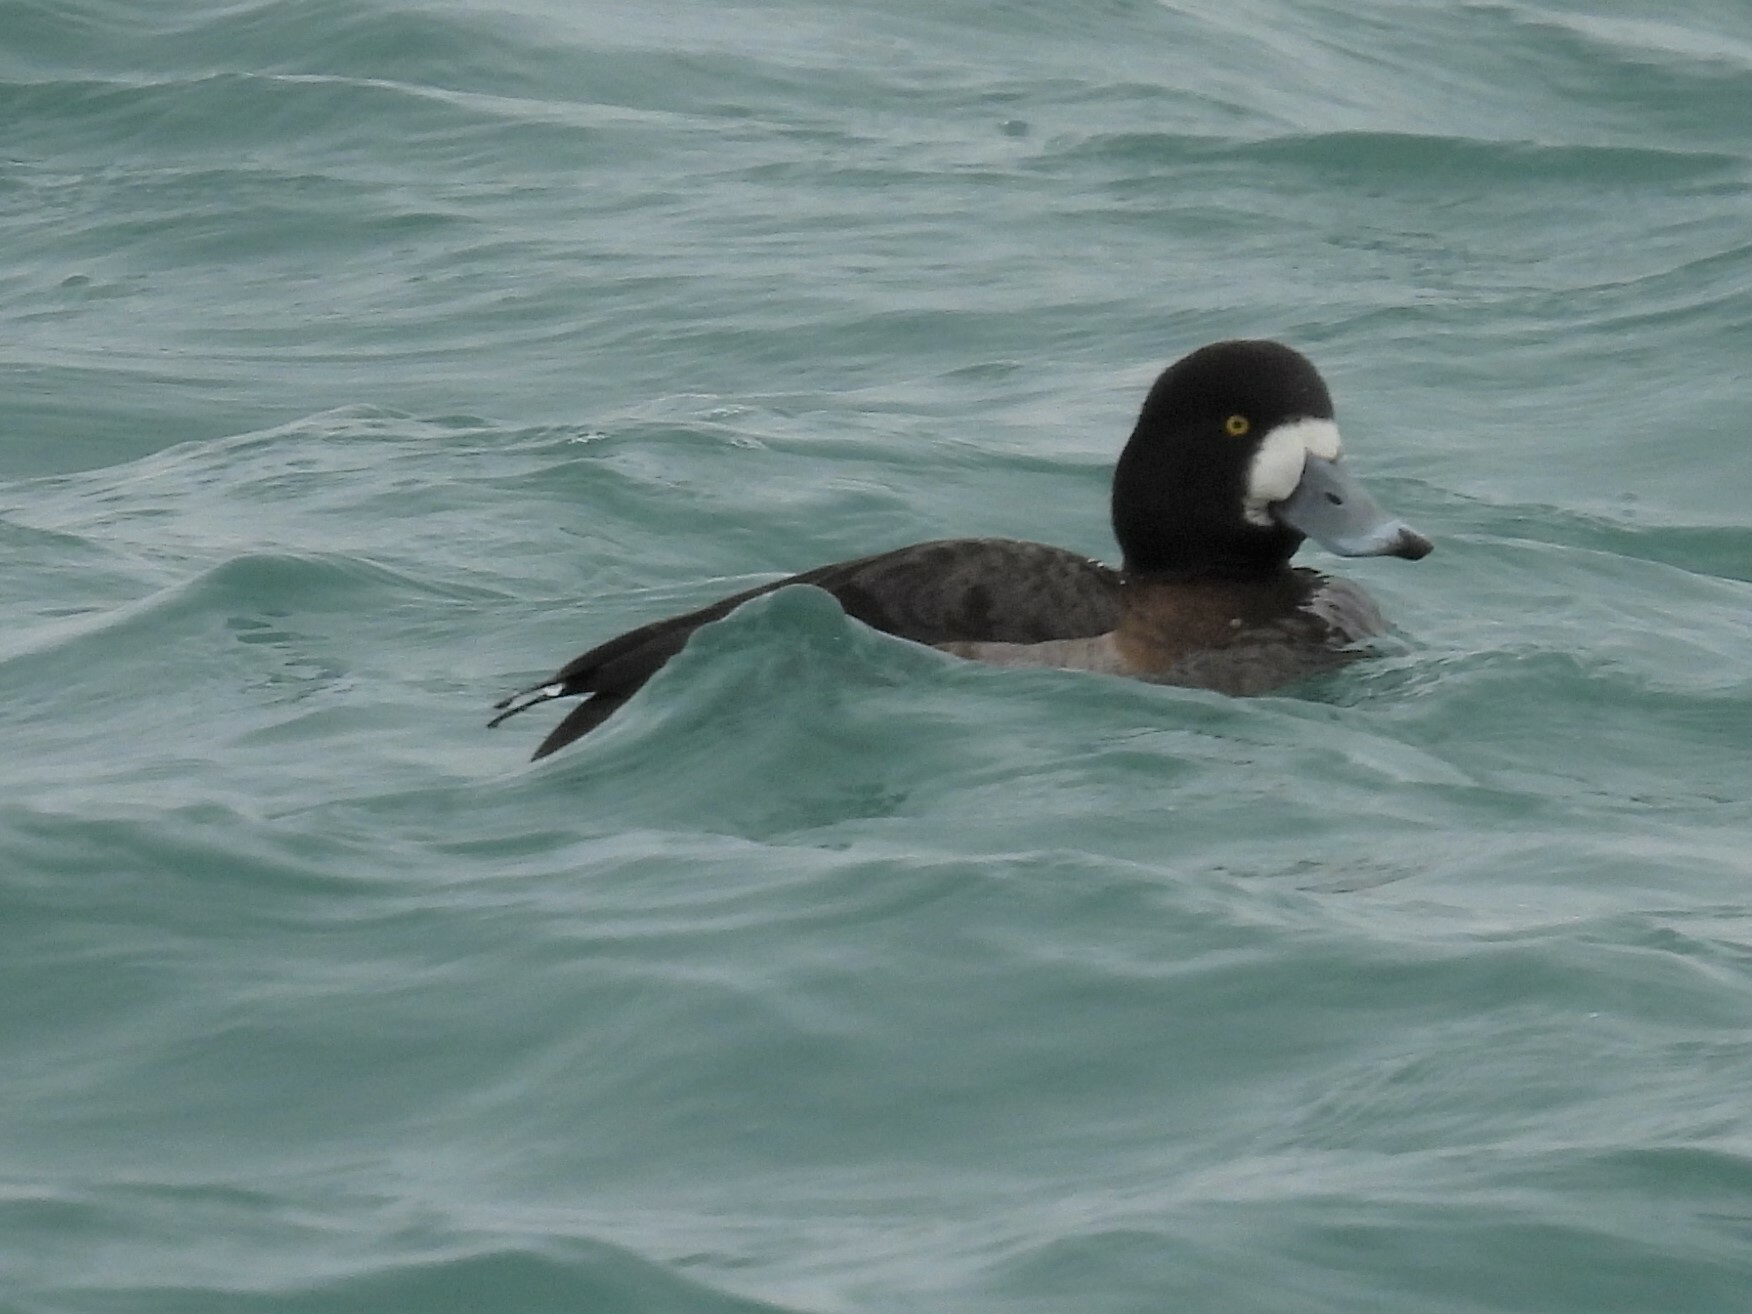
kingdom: Animalia
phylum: Chordata
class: Aves
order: Anseriformes
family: Anatidae
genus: Aythya
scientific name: Aythya marila
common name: Greater scaup
